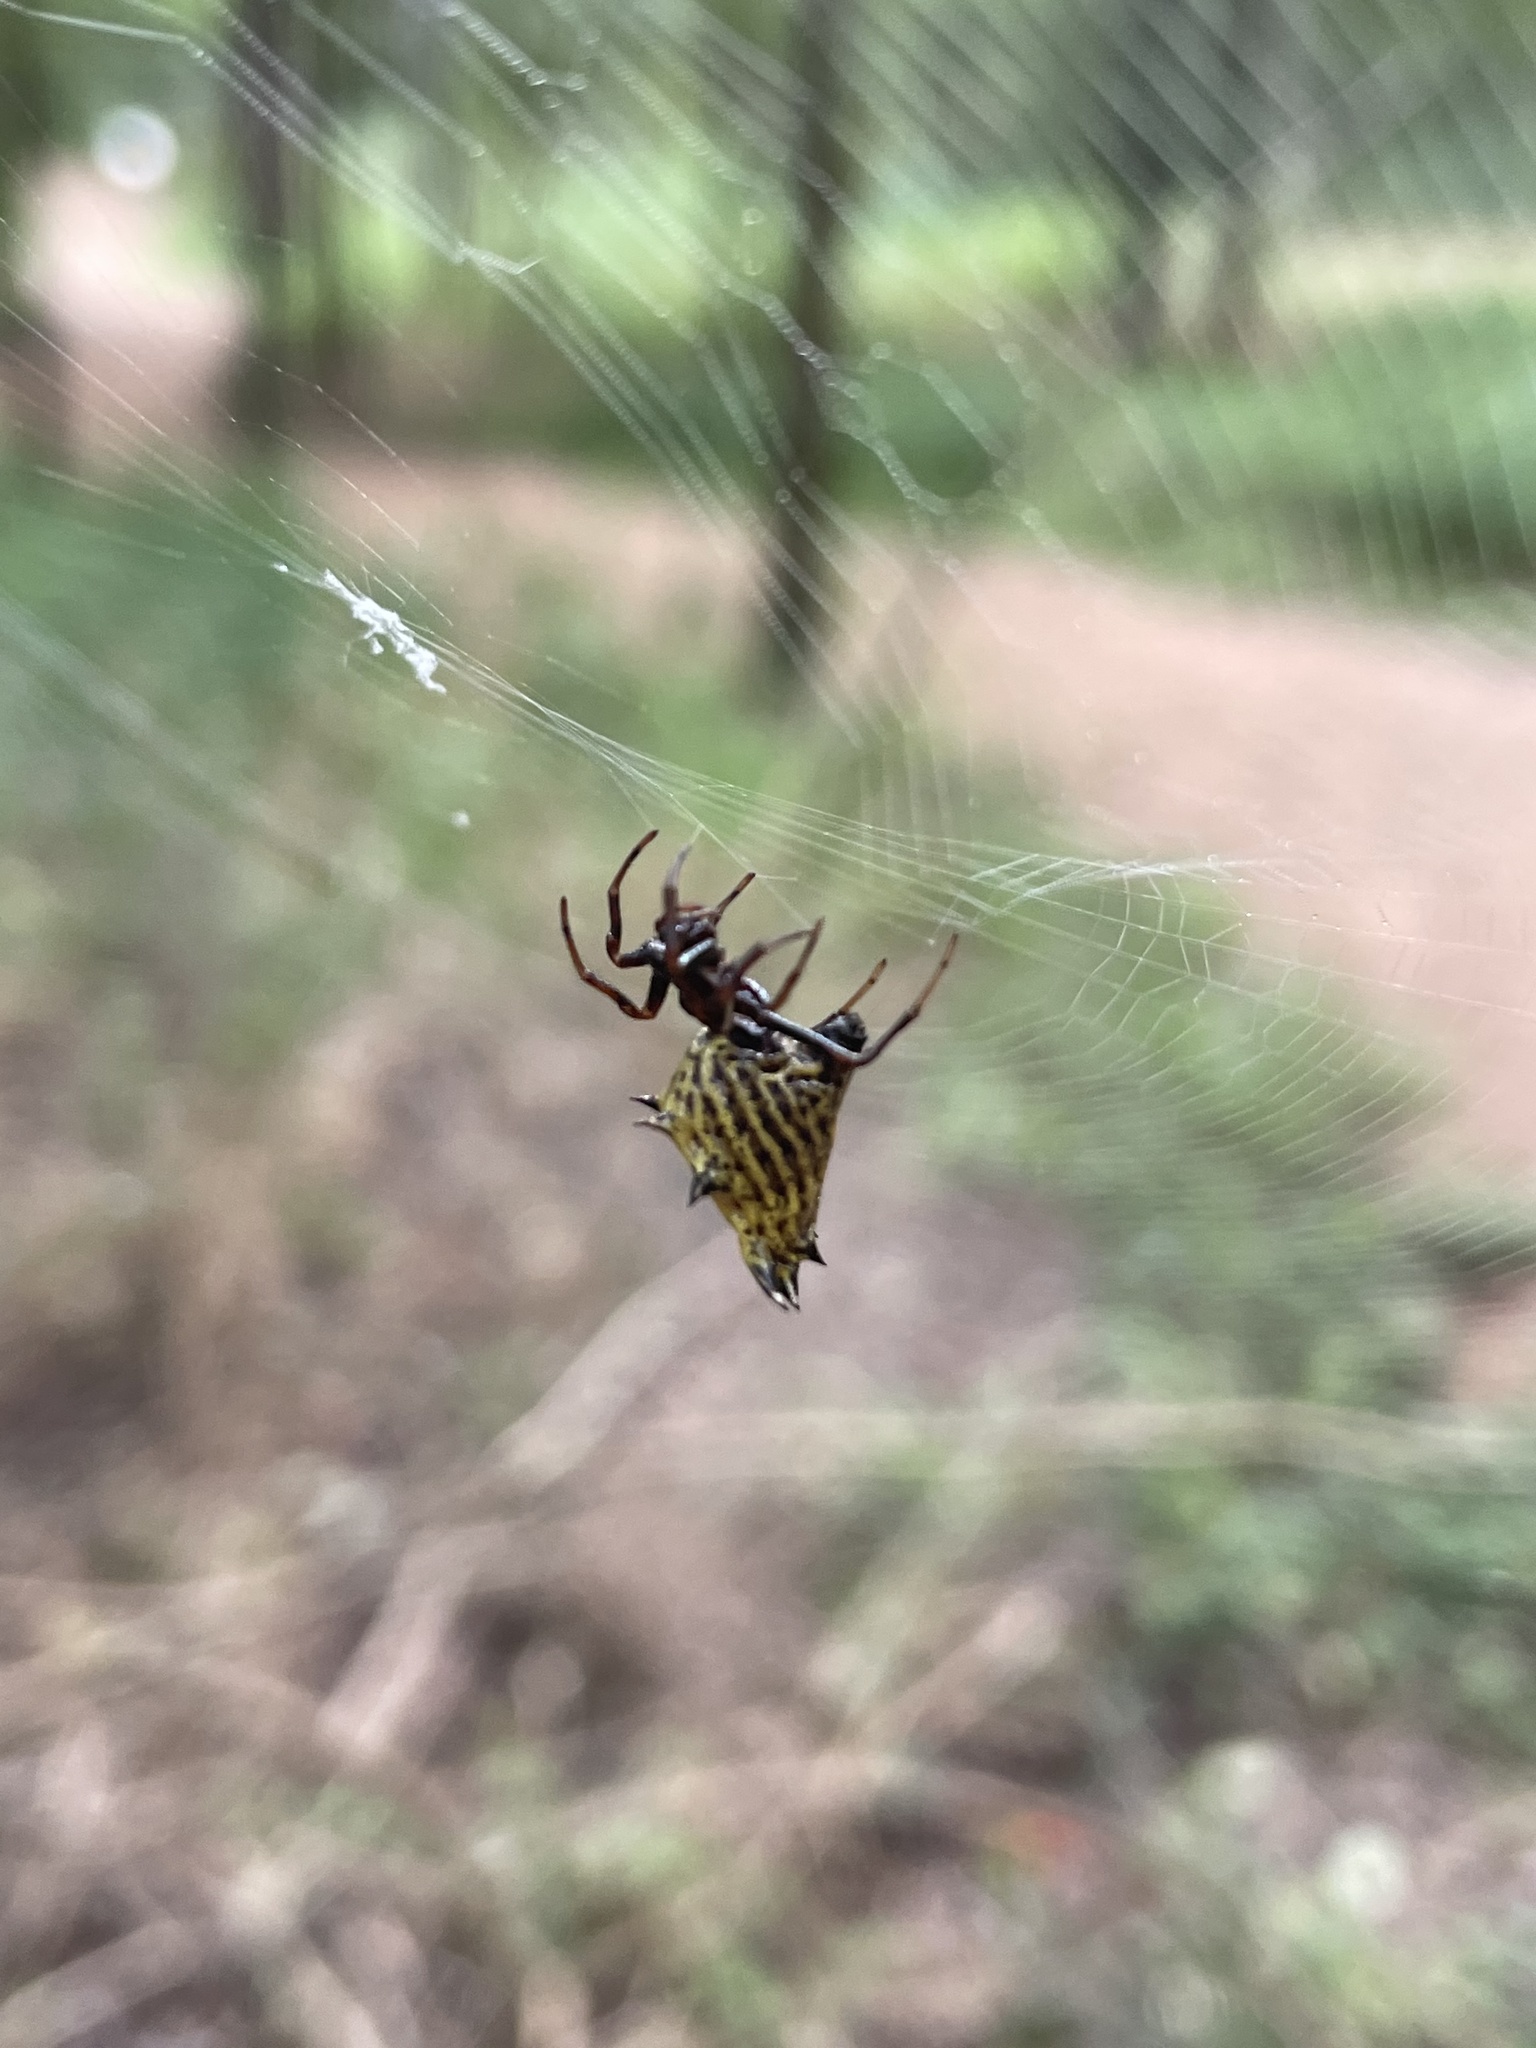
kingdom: Animalia
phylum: Arthropoda
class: Arachnida
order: Araneae
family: Araneidae
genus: Micrathena
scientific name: Micrathena gracilis
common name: Orb weavers
